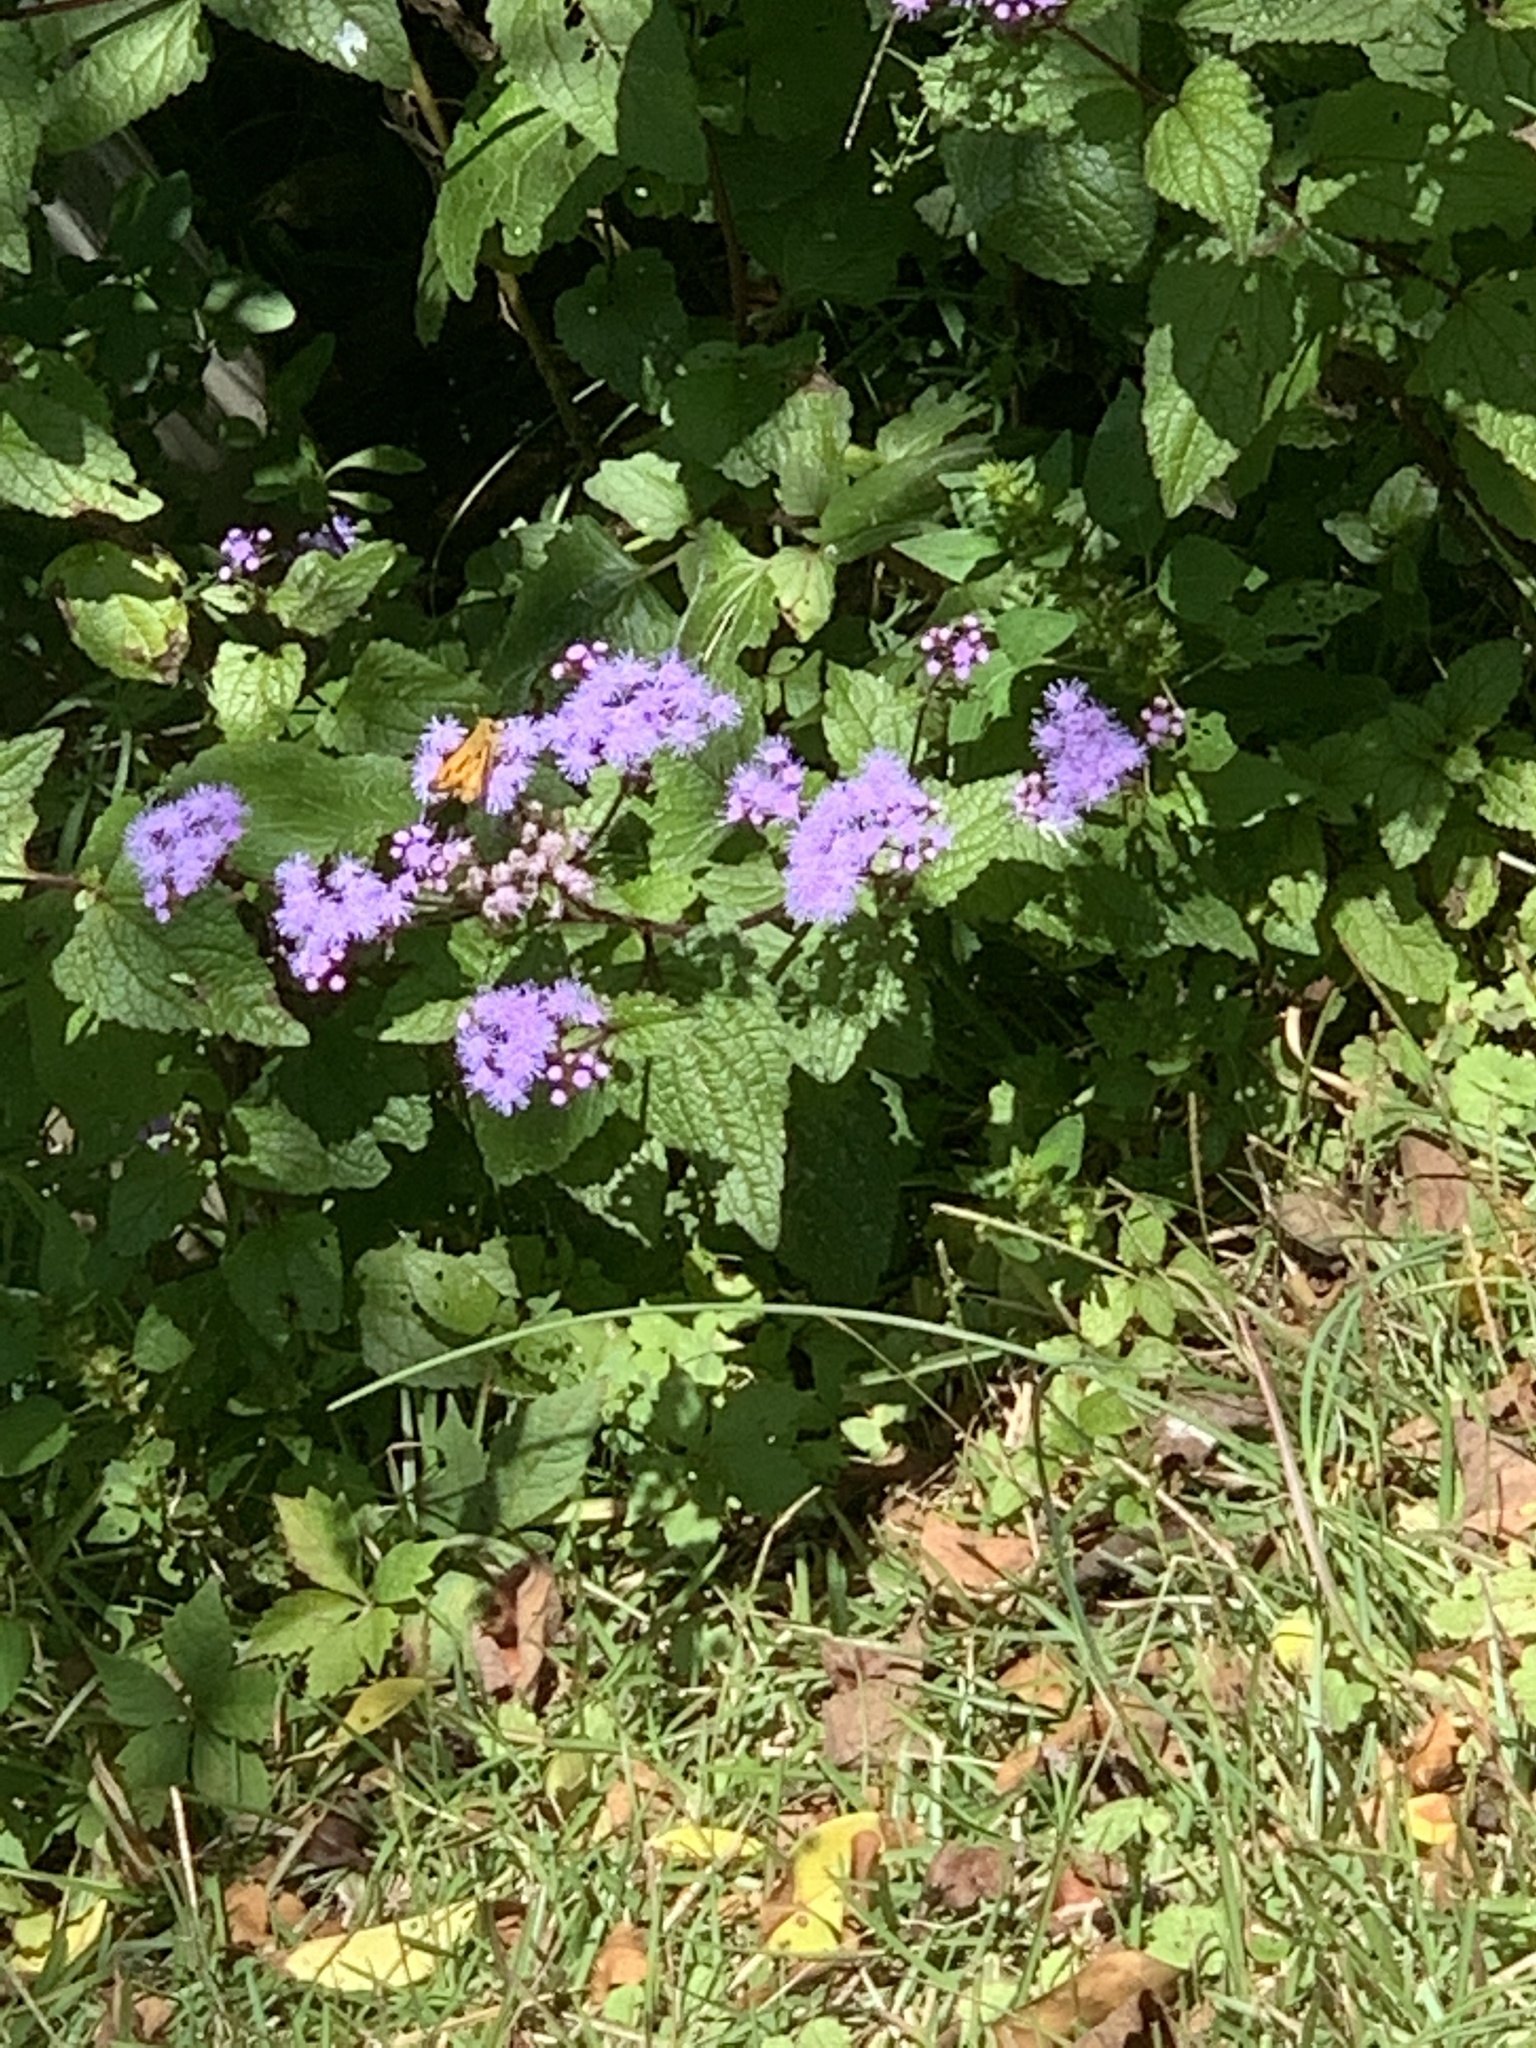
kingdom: Plantae
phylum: Tracheophyta
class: Magnoliopsida
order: Asterales
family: Asteraceae
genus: Conoclinium
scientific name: Conoclinium coelestinum
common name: Blue mistflower
